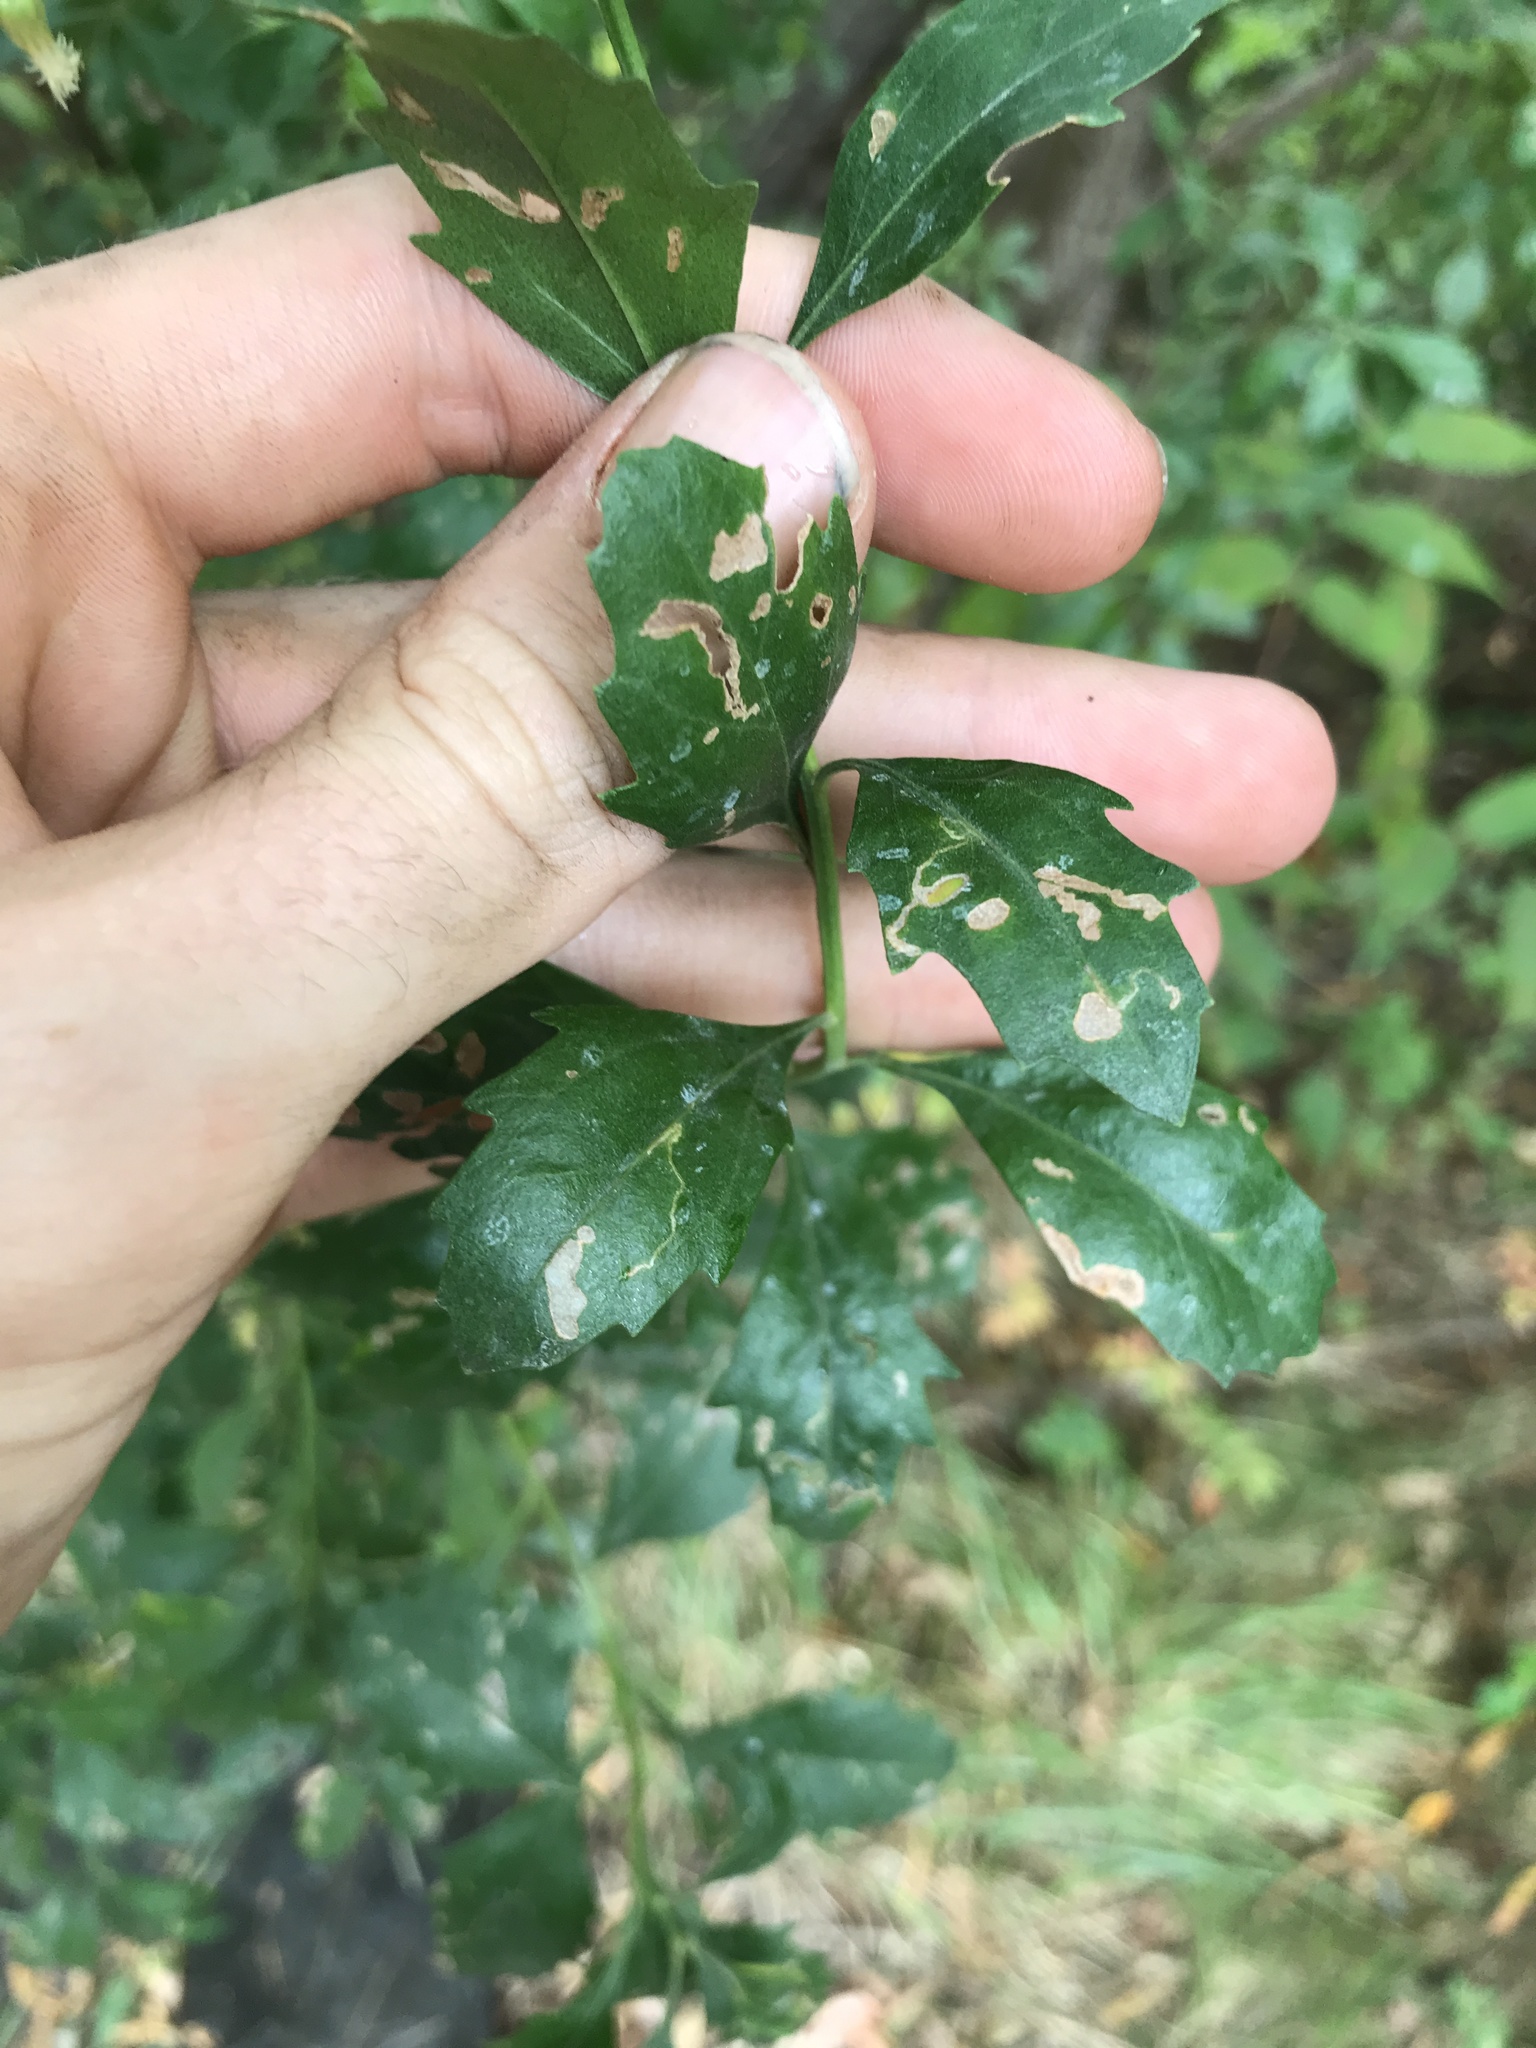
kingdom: Plantae
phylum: Tracheophyta
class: Magnoliopsida
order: Asterales
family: Asteraceae
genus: Baccharis
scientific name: Baccharis halimifolia
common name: Eastern baccharis
